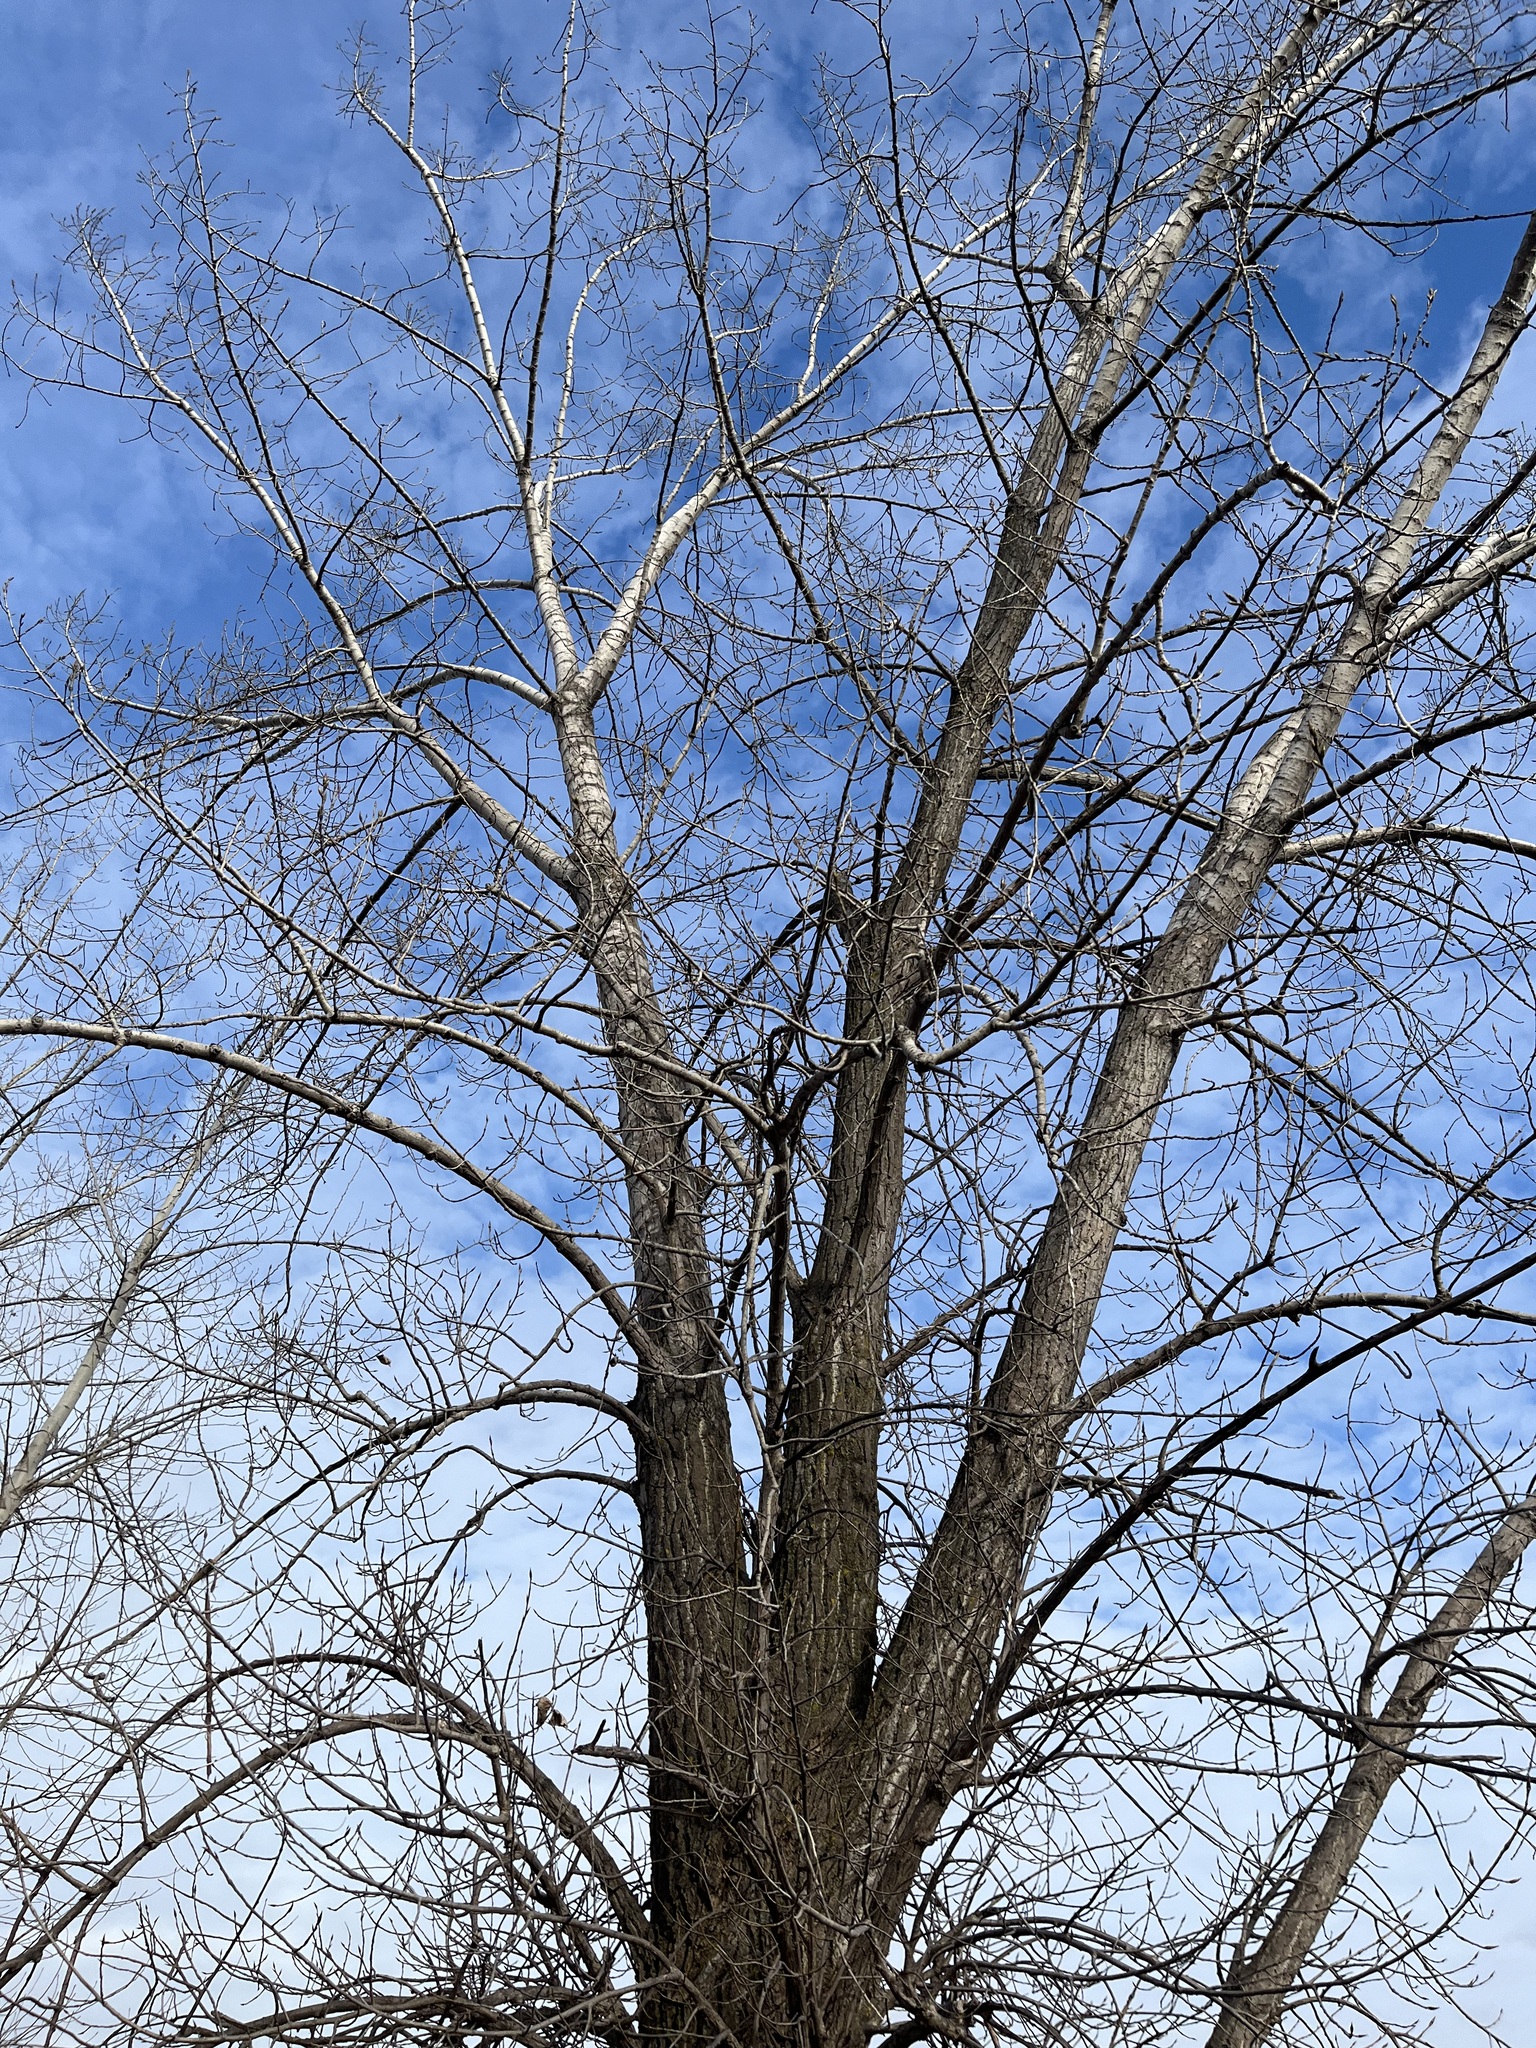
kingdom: Plantae
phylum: Tracheophyta
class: Magnoliopsida
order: Malpighiales
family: Salicaceae
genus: Populus
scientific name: Populus deltoides
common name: Eastern cottonwood
